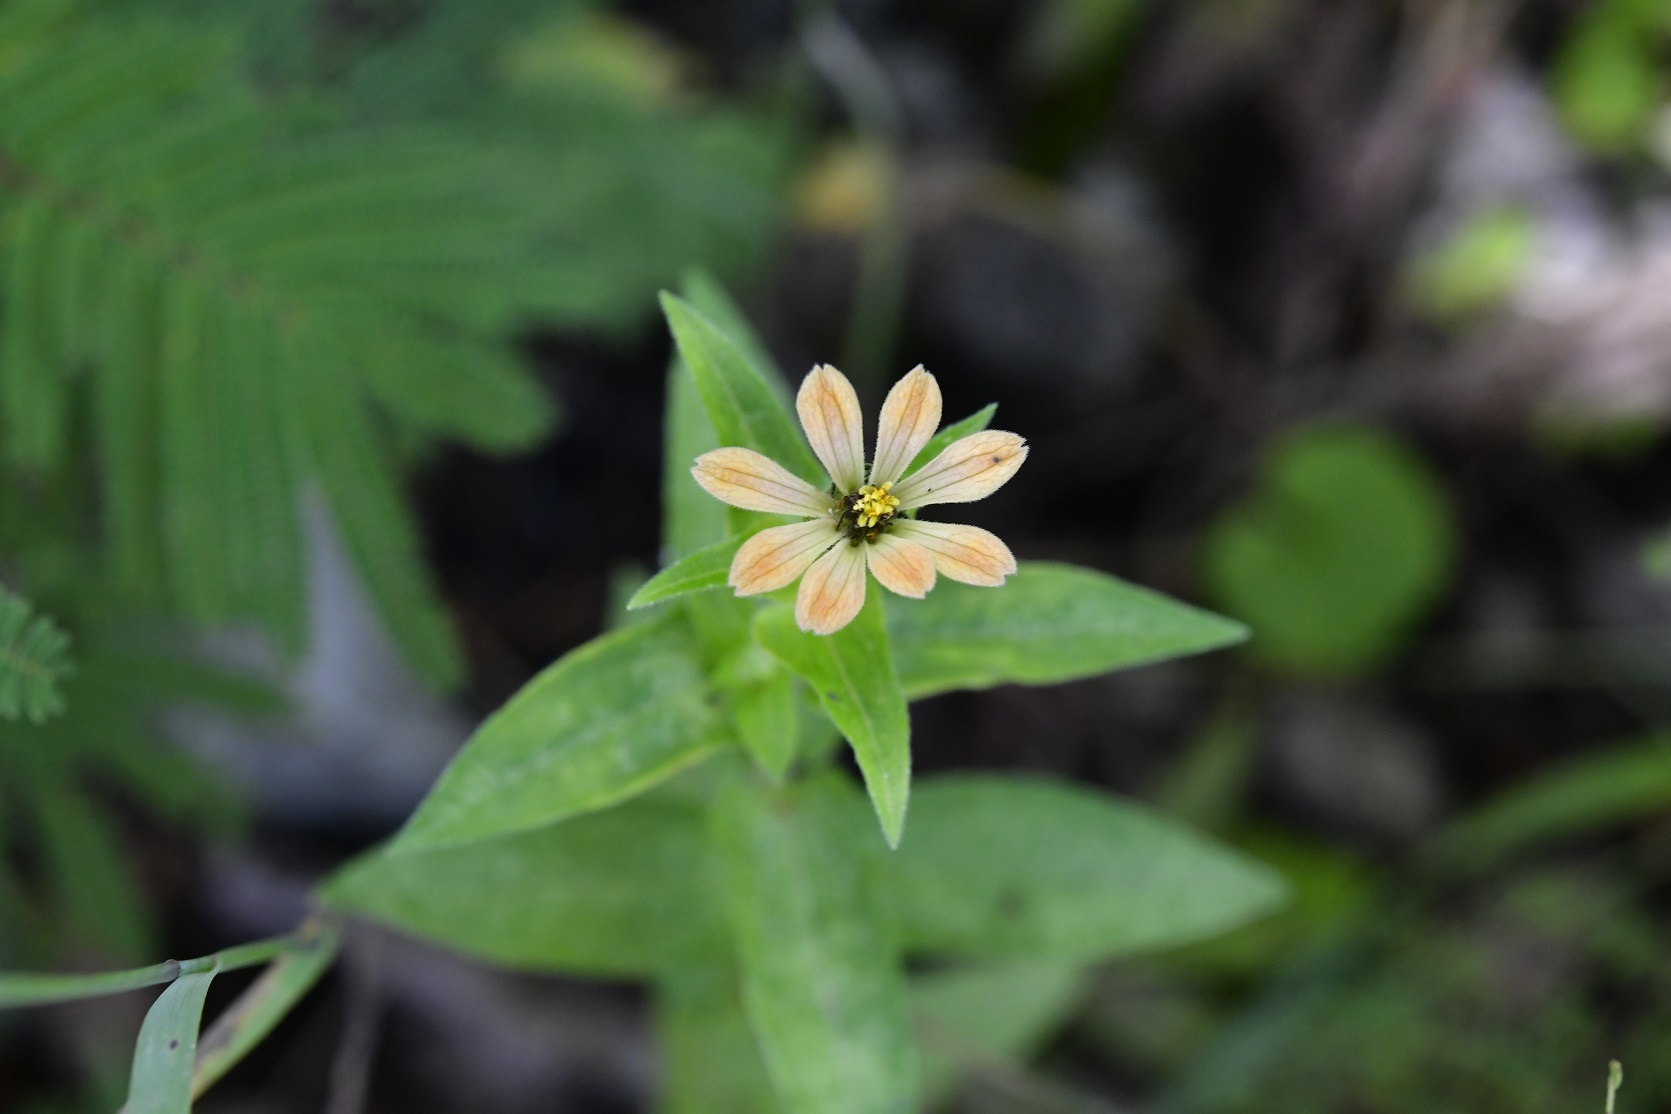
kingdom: Plantae
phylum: Tracheophyta
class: Magnoliopsida
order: Asterales
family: Asteraceae
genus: Zinnia
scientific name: Zinnia peruviana
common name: Peruvian zinnia
